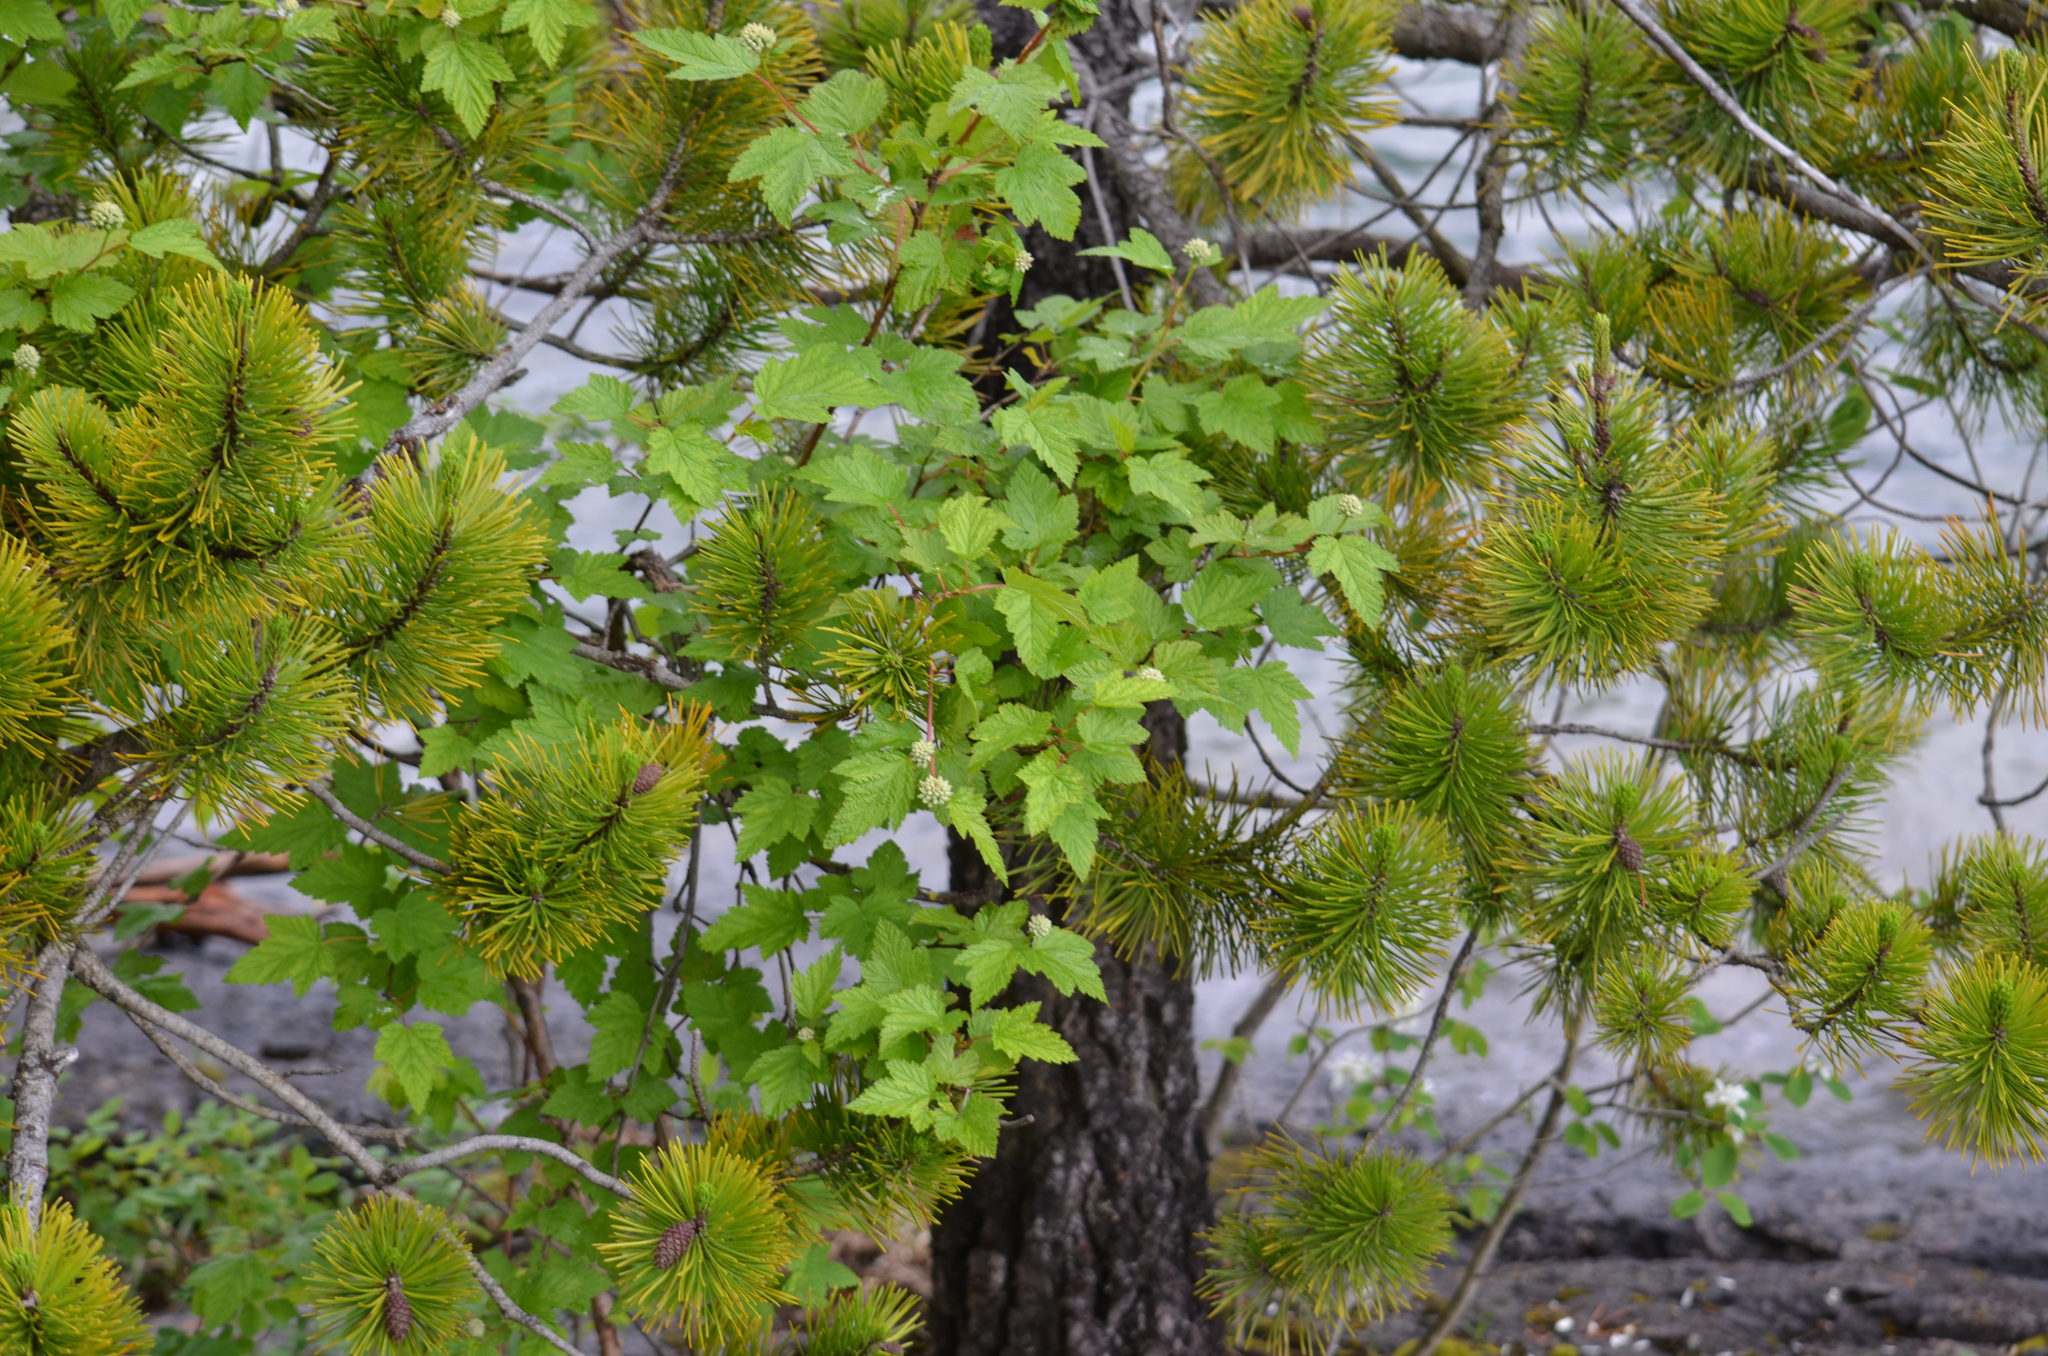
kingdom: Plantae
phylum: Tracheophyta
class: Magnoliopsida
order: Rosales
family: Rosaceae
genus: Physocarpus
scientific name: Physocarpus capitatus
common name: Pacific ninebark
